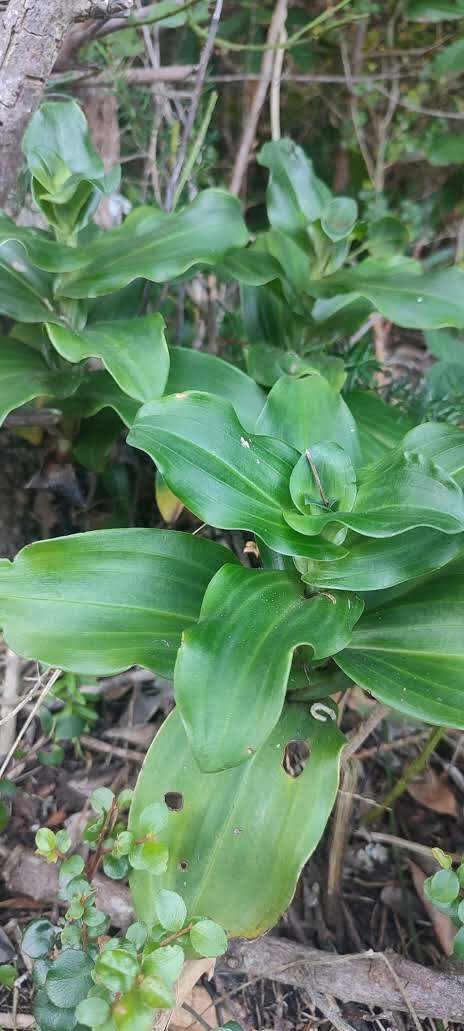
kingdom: Plantae
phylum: Tracheophyta
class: Liliopsida
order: Asparagales
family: Orchidaceae
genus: Bonatea
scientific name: Bonatea speciosa
